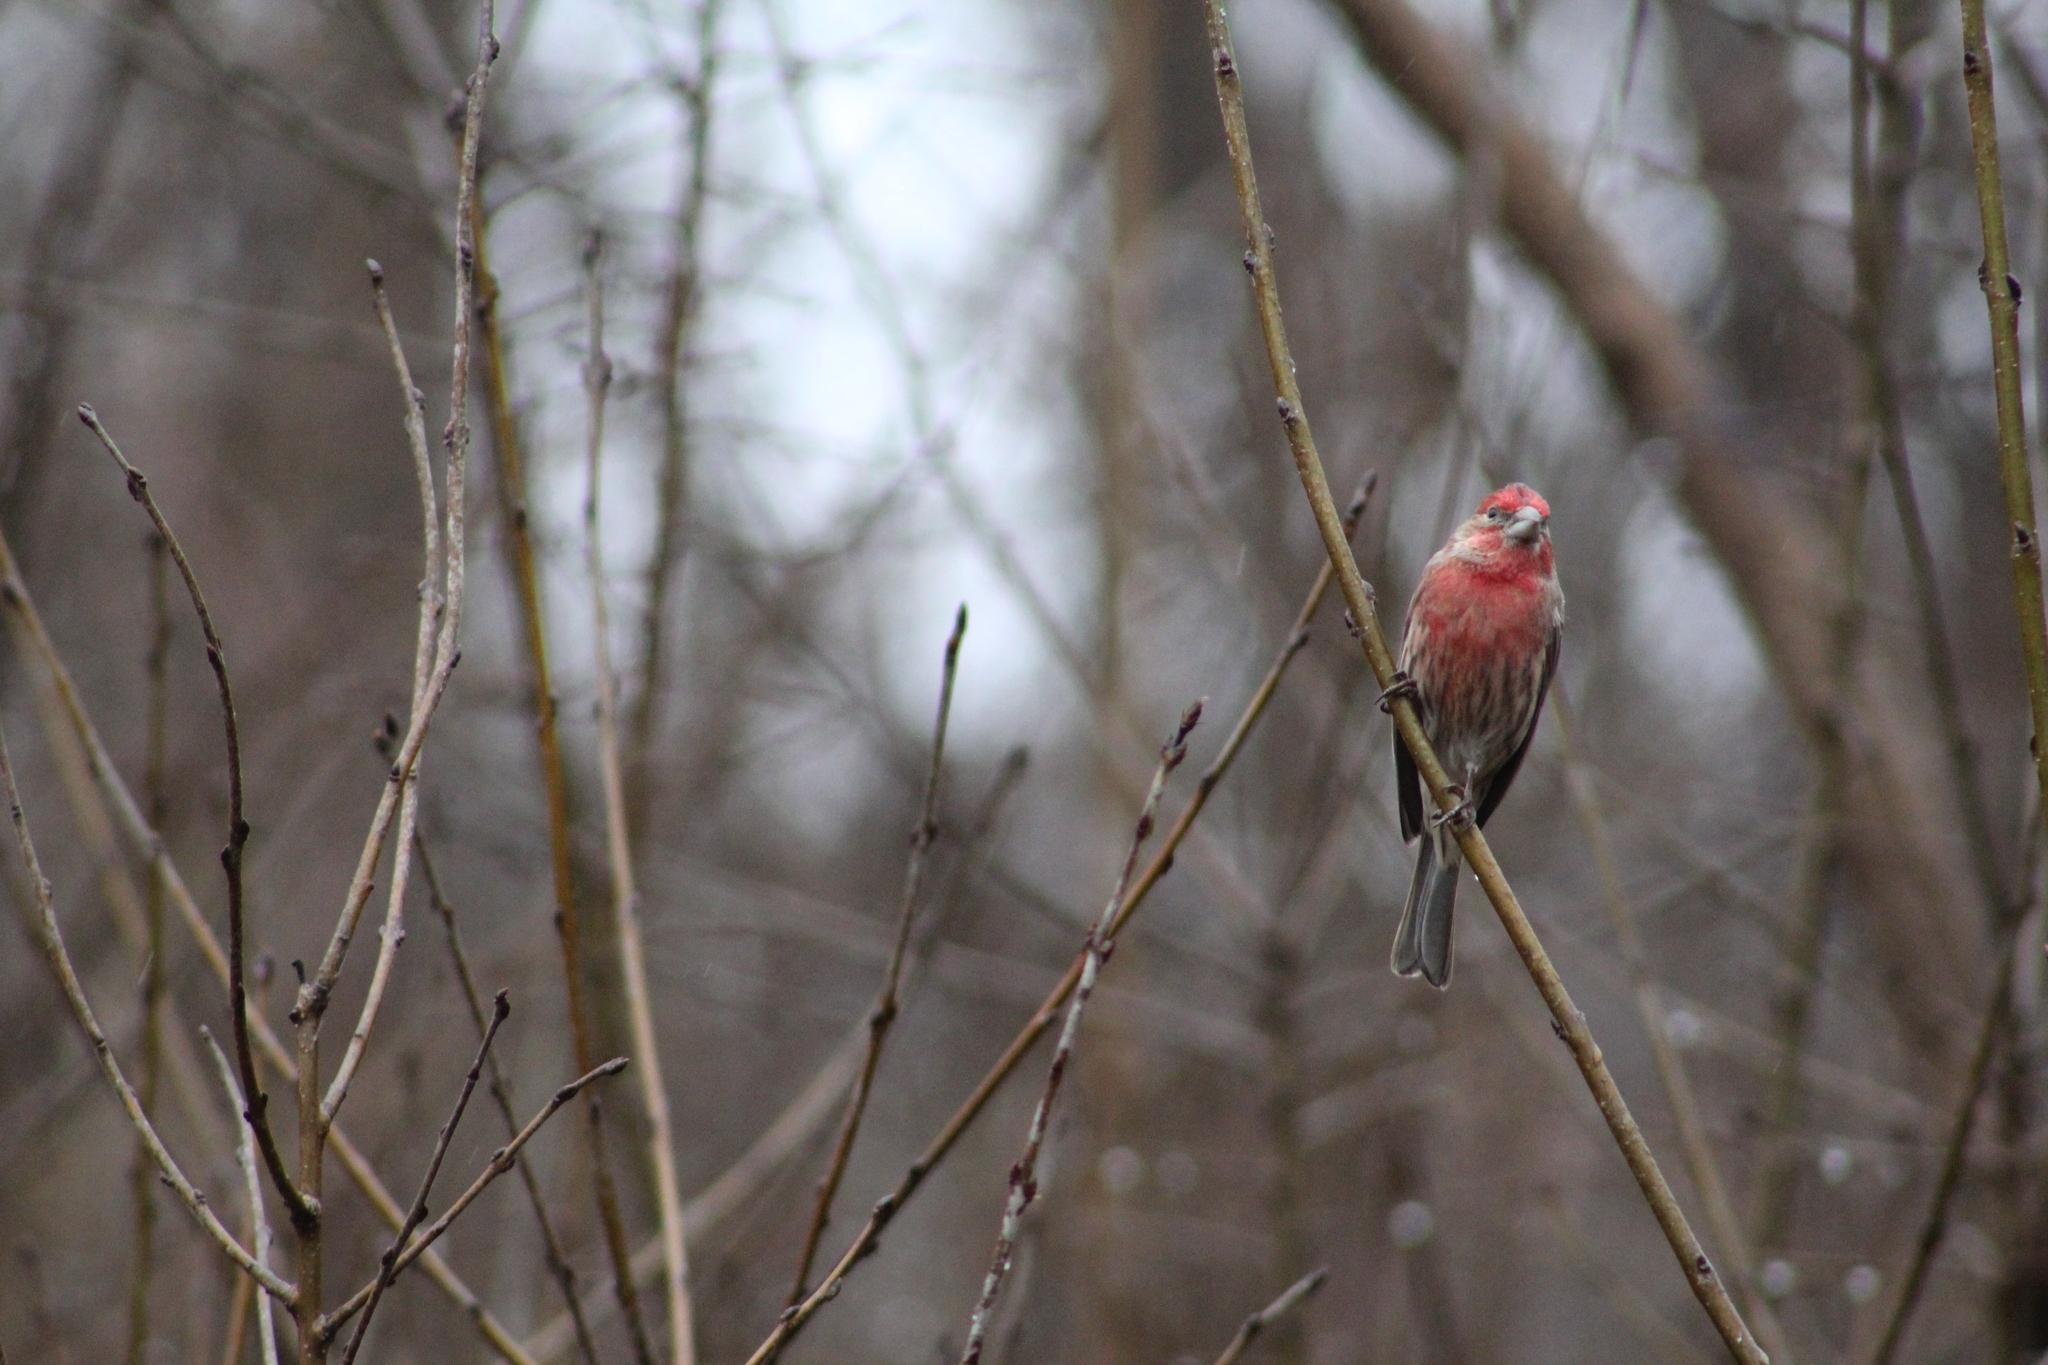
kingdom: Animalia
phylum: Chordata
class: Aves
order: Passeriformes
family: Fringillidae
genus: Haemorhous
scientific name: Haemorhous mexicanus
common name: House finch
